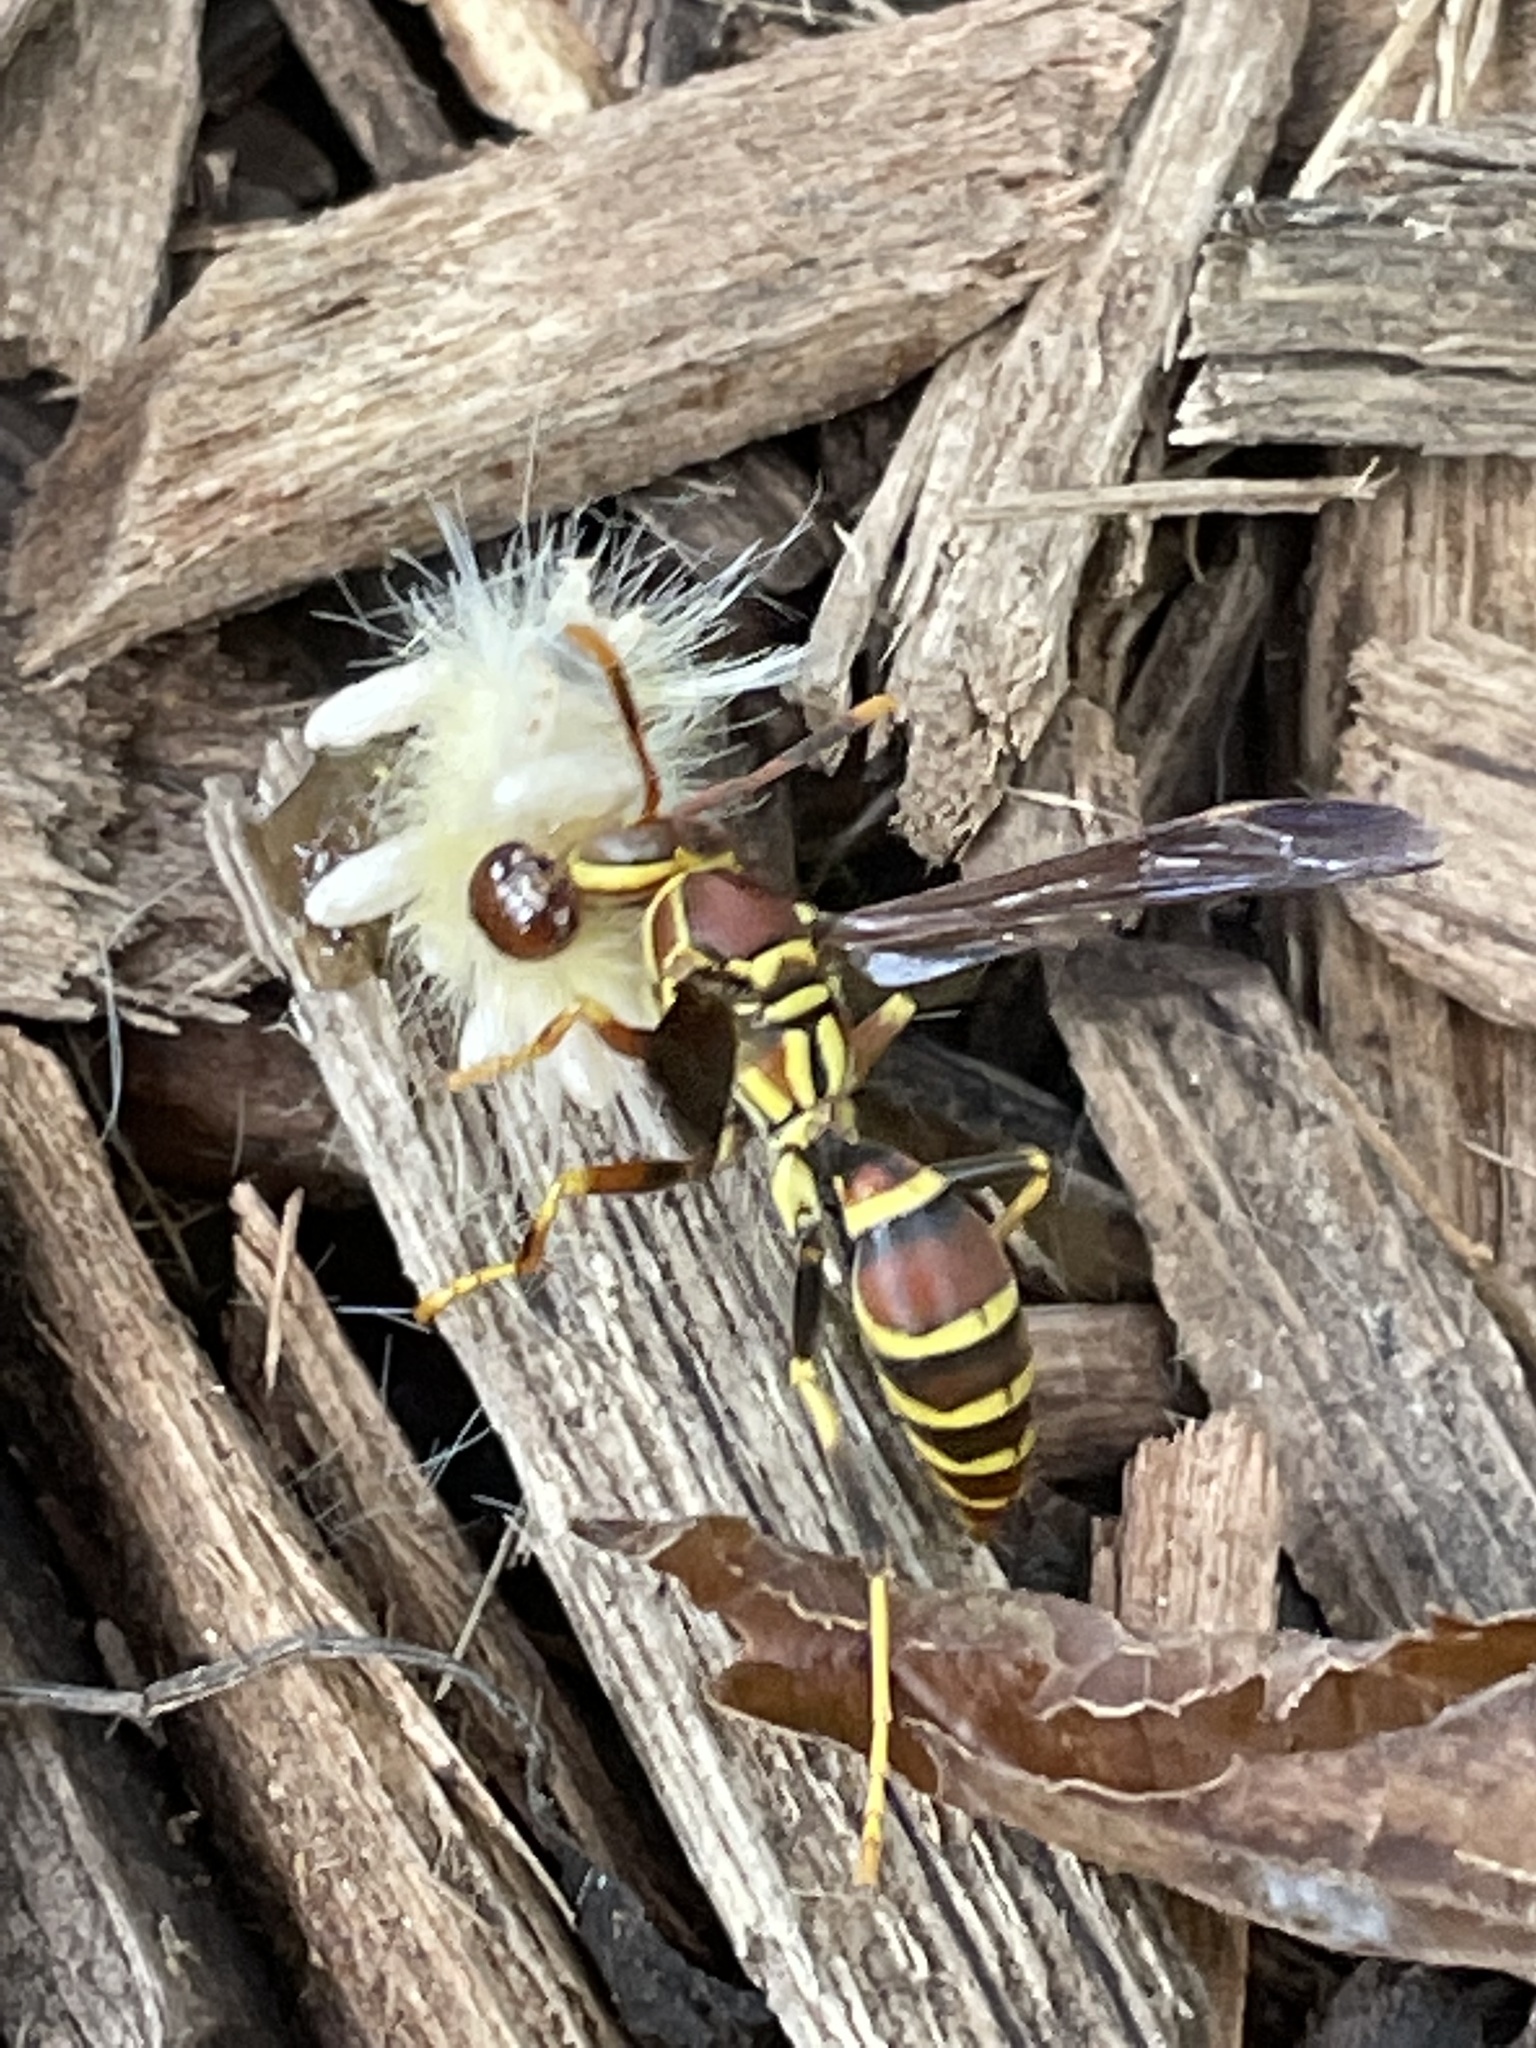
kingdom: Animalia
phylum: Arthropoda
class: Insecta
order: Hymenoptera
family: Eumenidae
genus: Polistes
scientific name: Polistes exclamans
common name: Paper wasp
